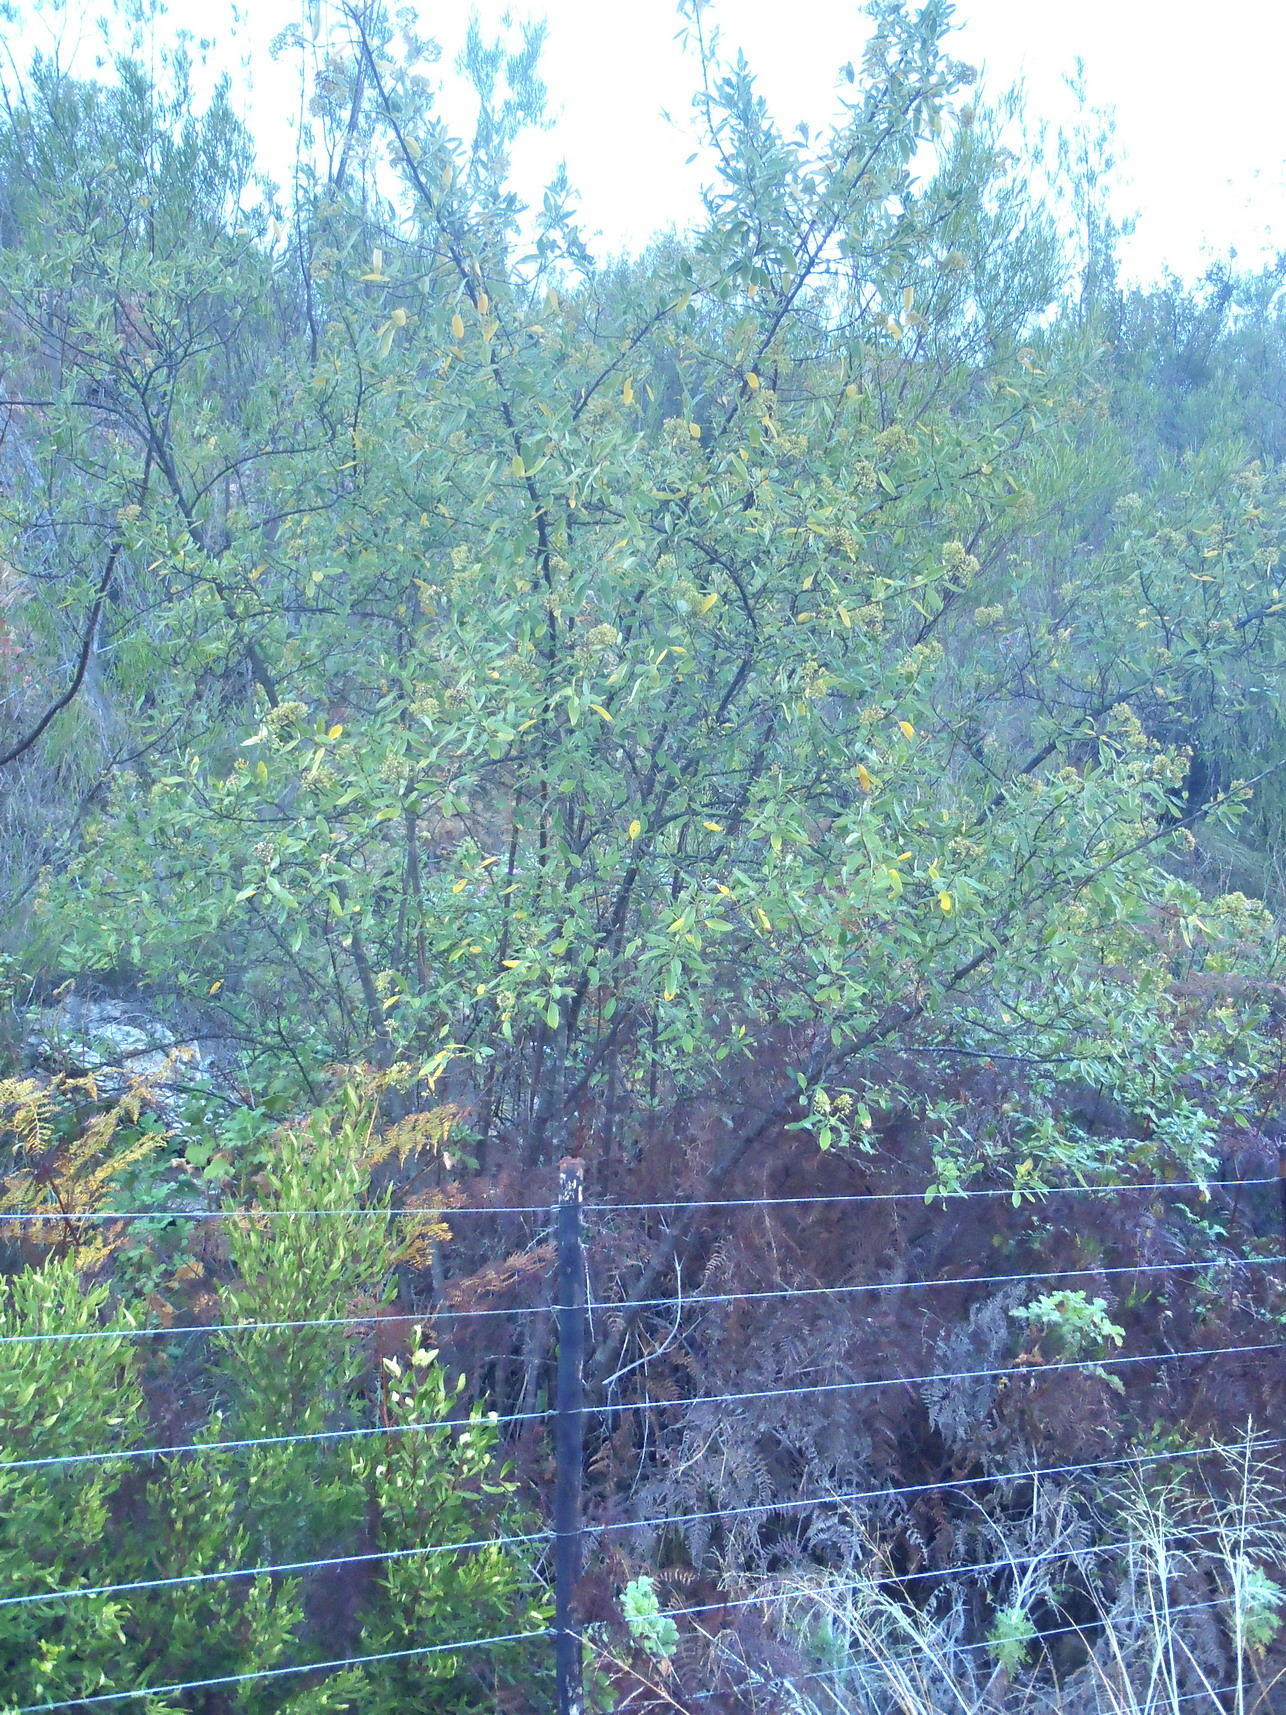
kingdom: Plantae
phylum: Tracheophyta
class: Magnoliopsida
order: Apiales
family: Apiaceae
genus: Heteromorpha
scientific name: Heteromorpha arborescens
